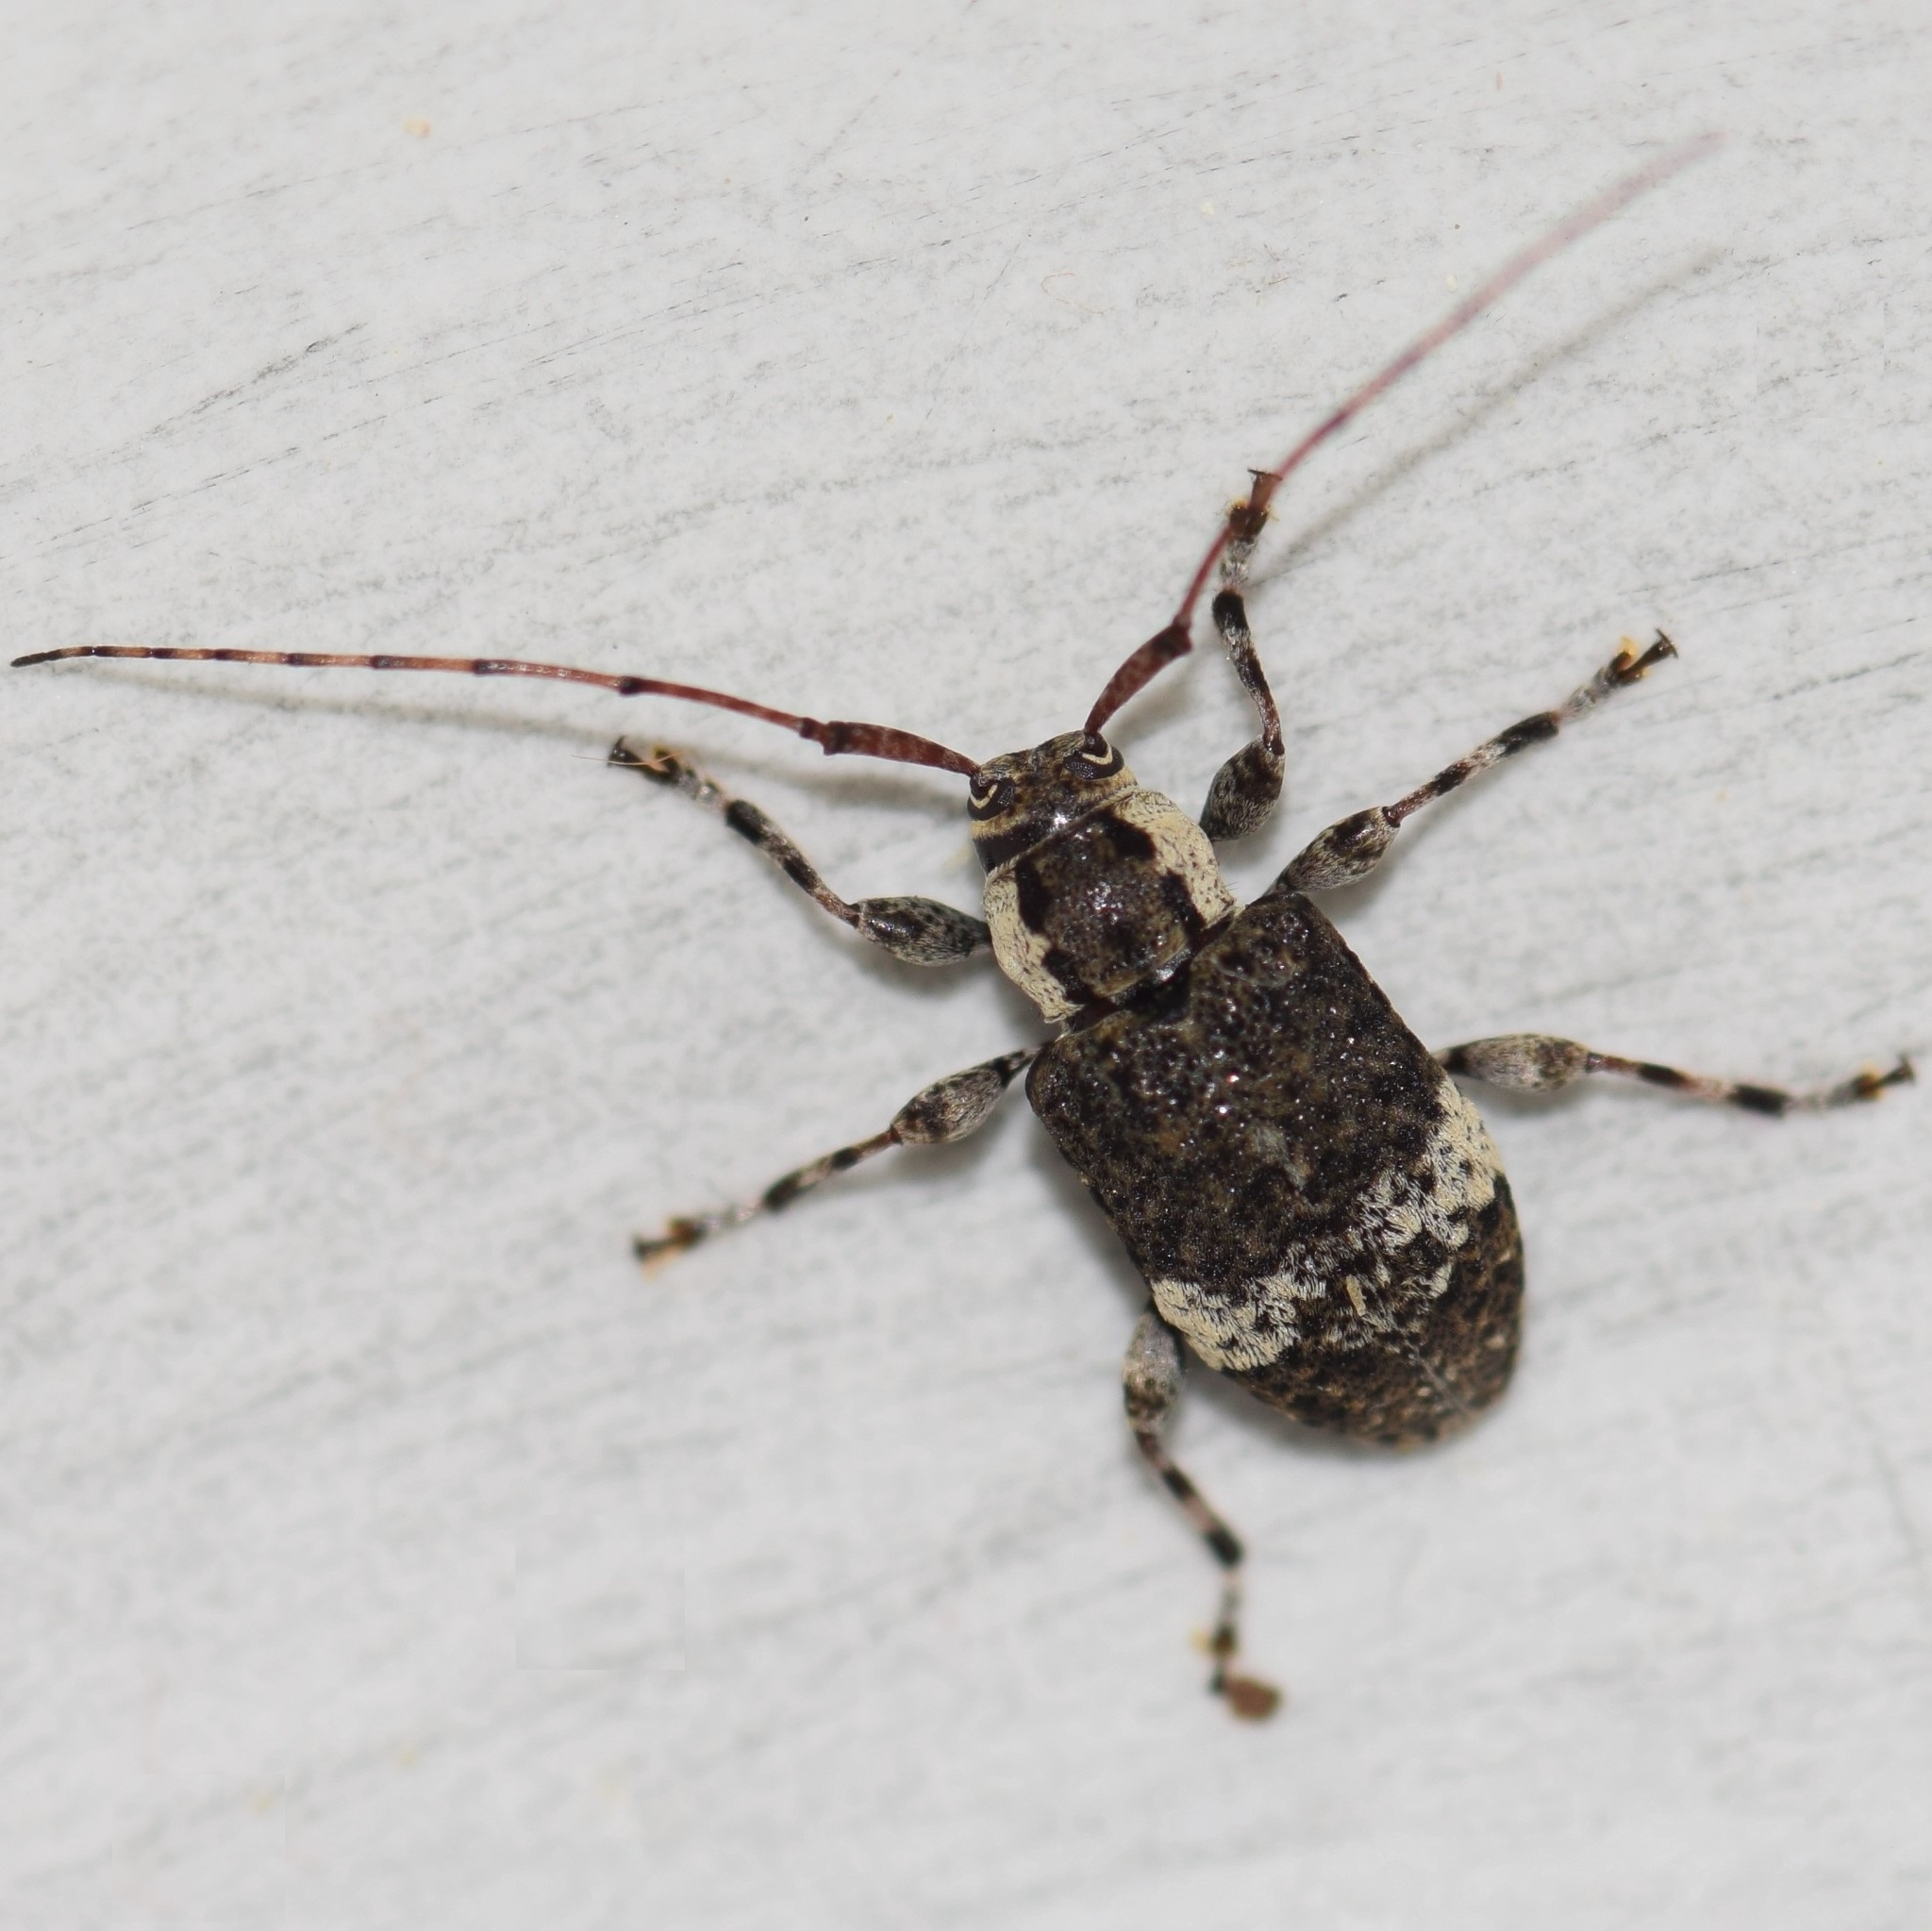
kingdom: Animalia
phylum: Arthropoda
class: Insecta
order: Coleoptera
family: Cerambycidae
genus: Astylopsis
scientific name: Astylopsis macula
